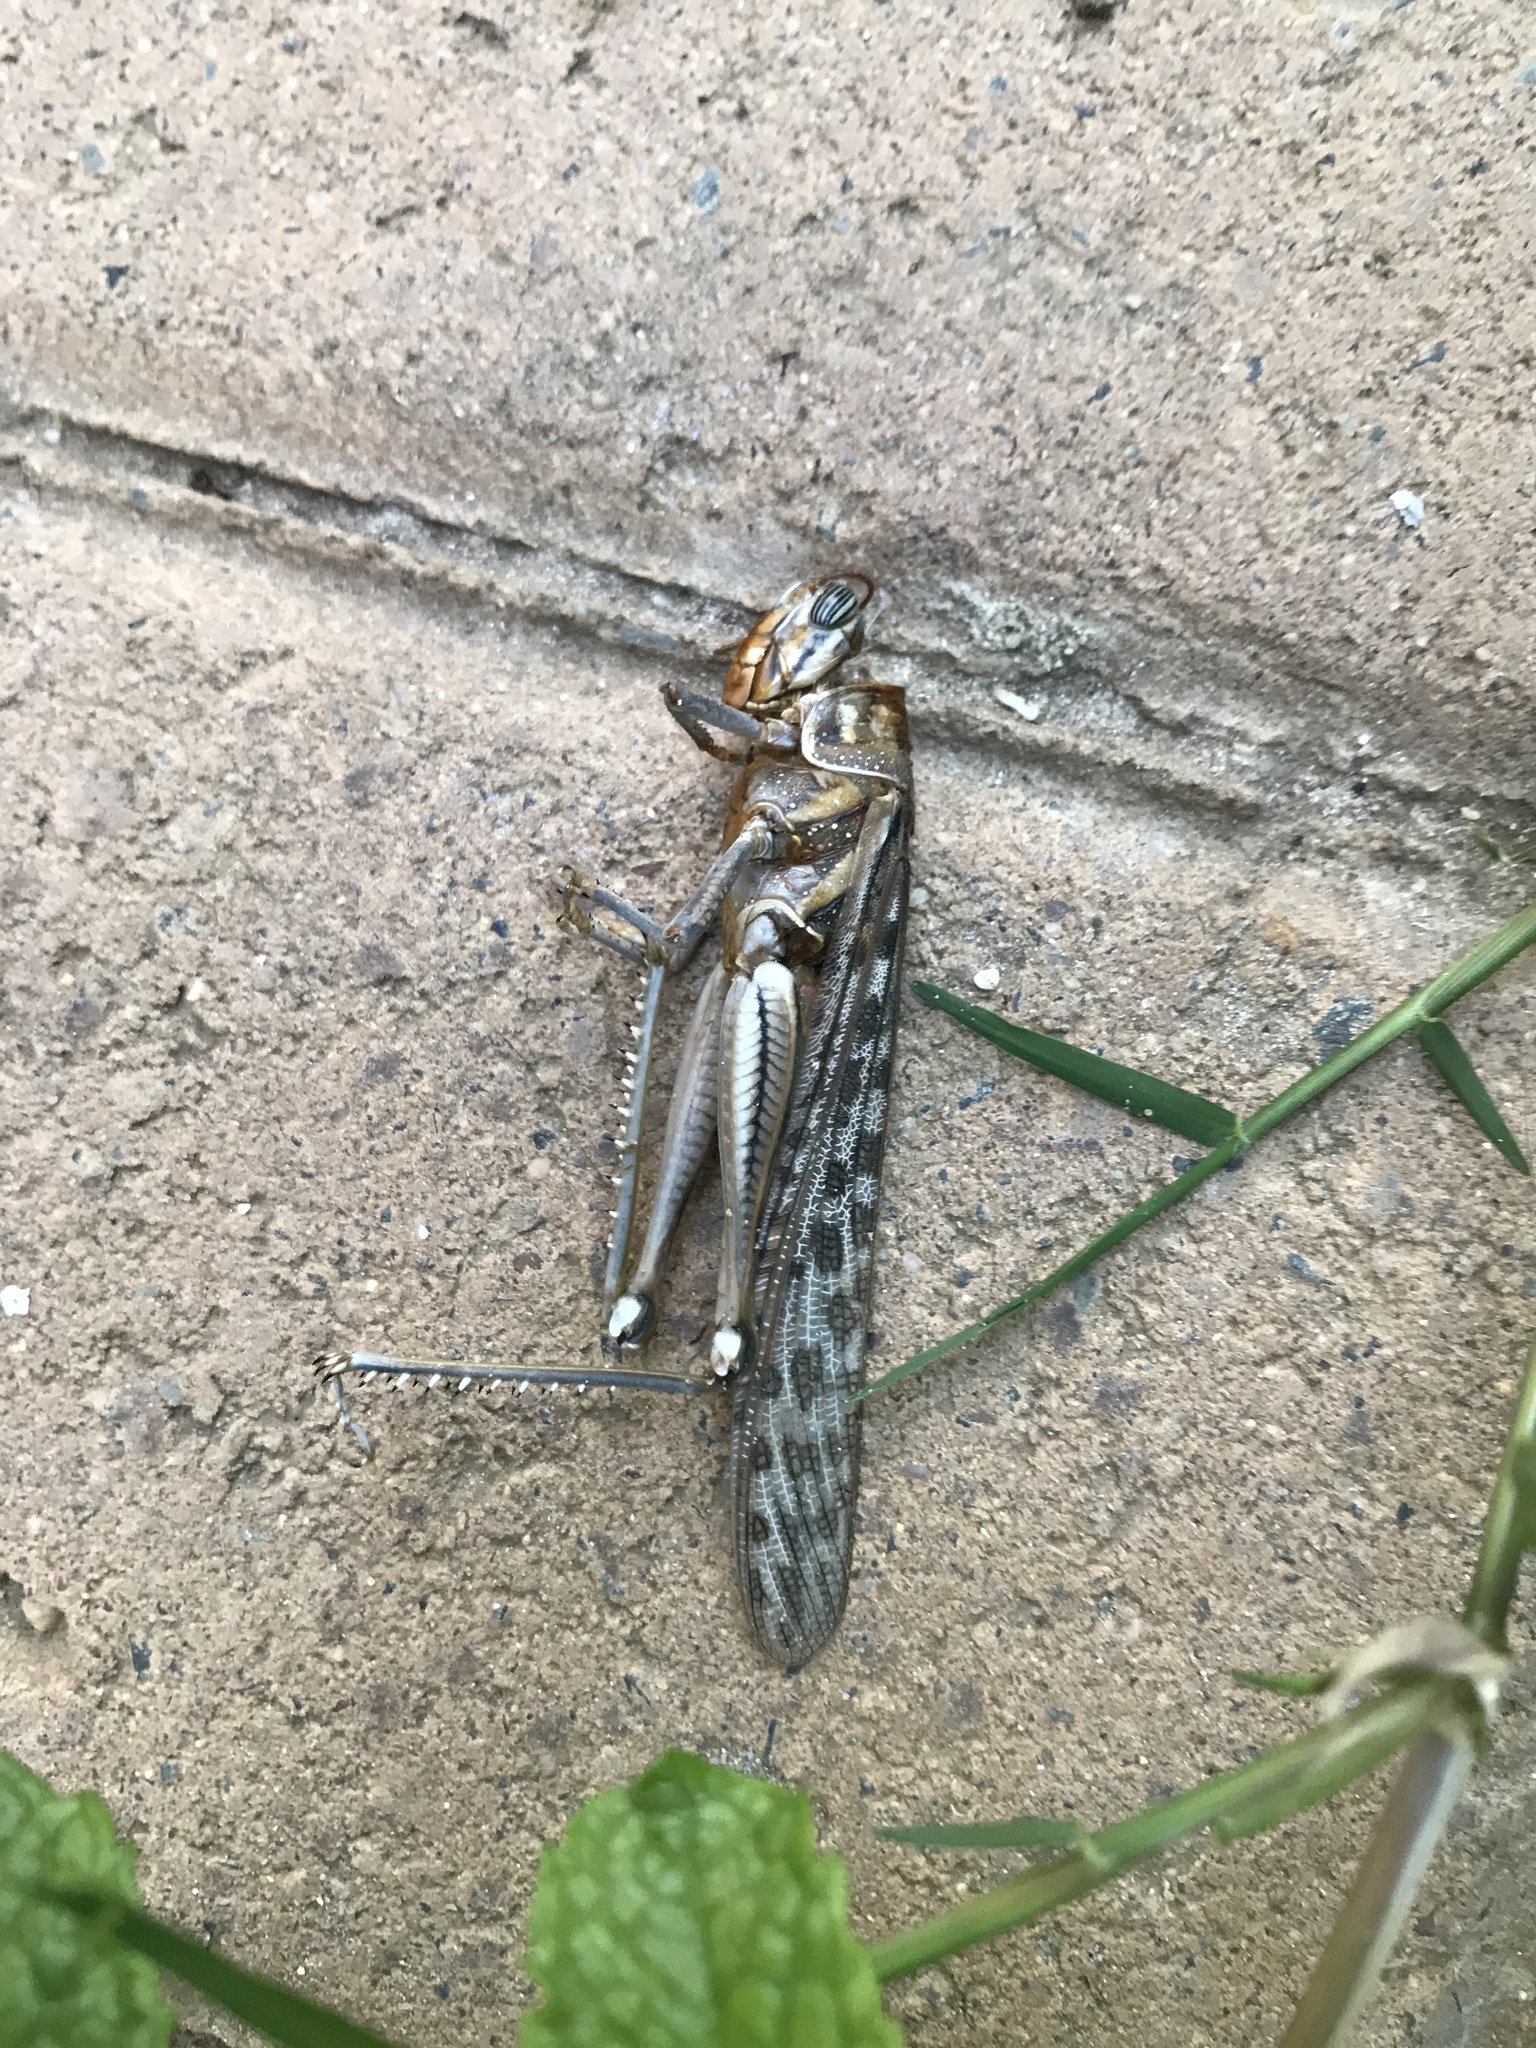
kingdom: Animalia
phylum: Arthropoda
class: Insecta
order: Orthoptera
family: Acrididae
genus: Schistocerca
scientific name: Schistocerca gregaria
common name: Desert locust
